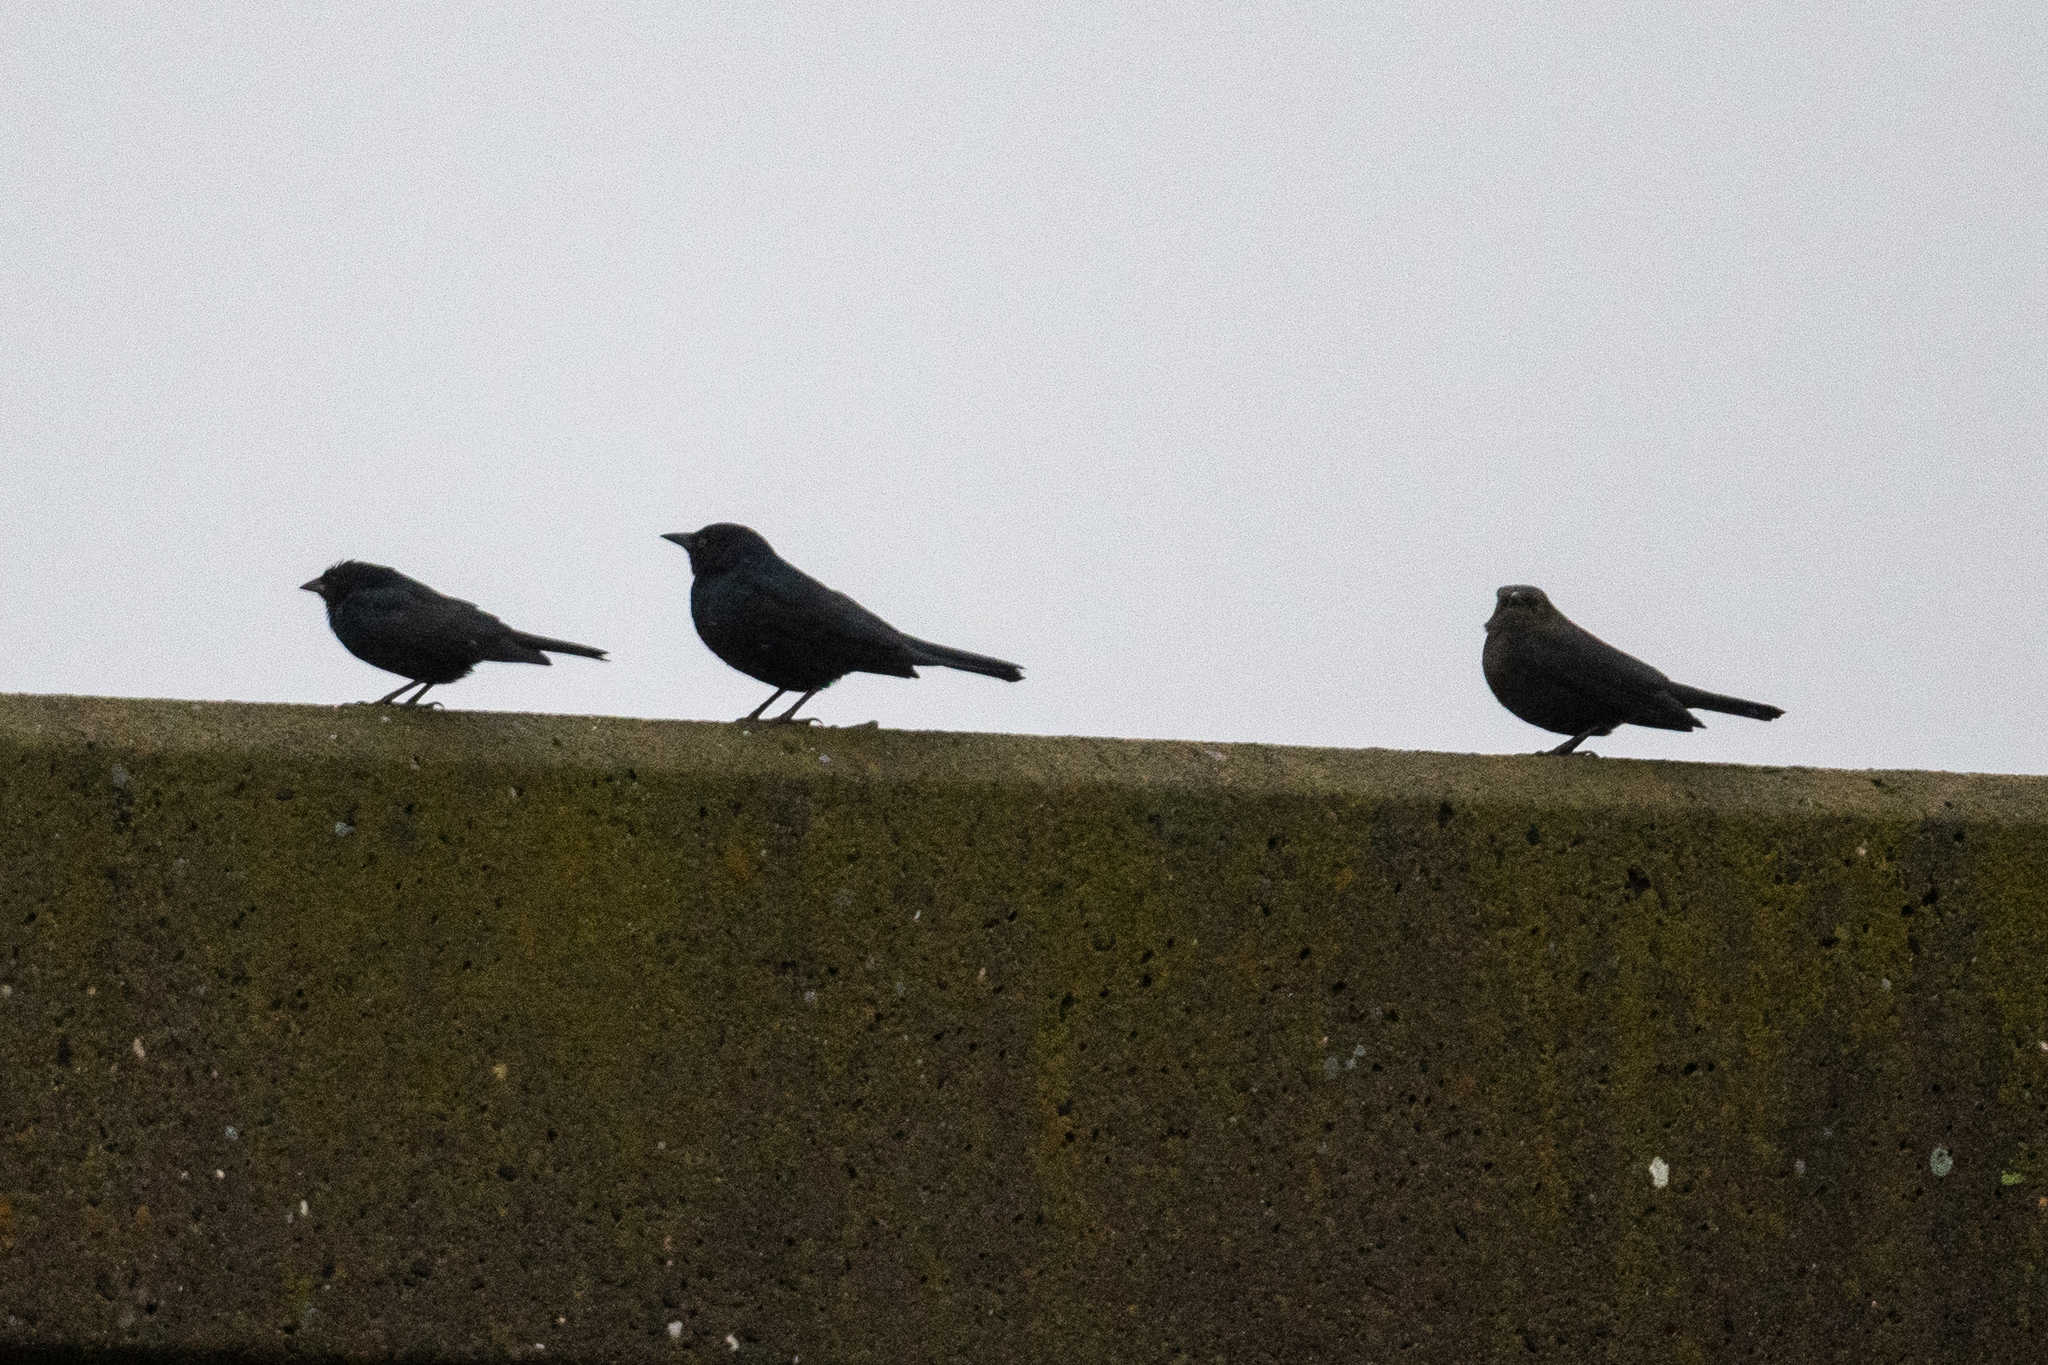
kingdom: Animalia
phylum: Chordata
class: Aves
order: Passeriformes
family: Icteridae
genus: Euphagus
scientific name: Euphagus cyanocephalus
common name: Brewer's blackbird
